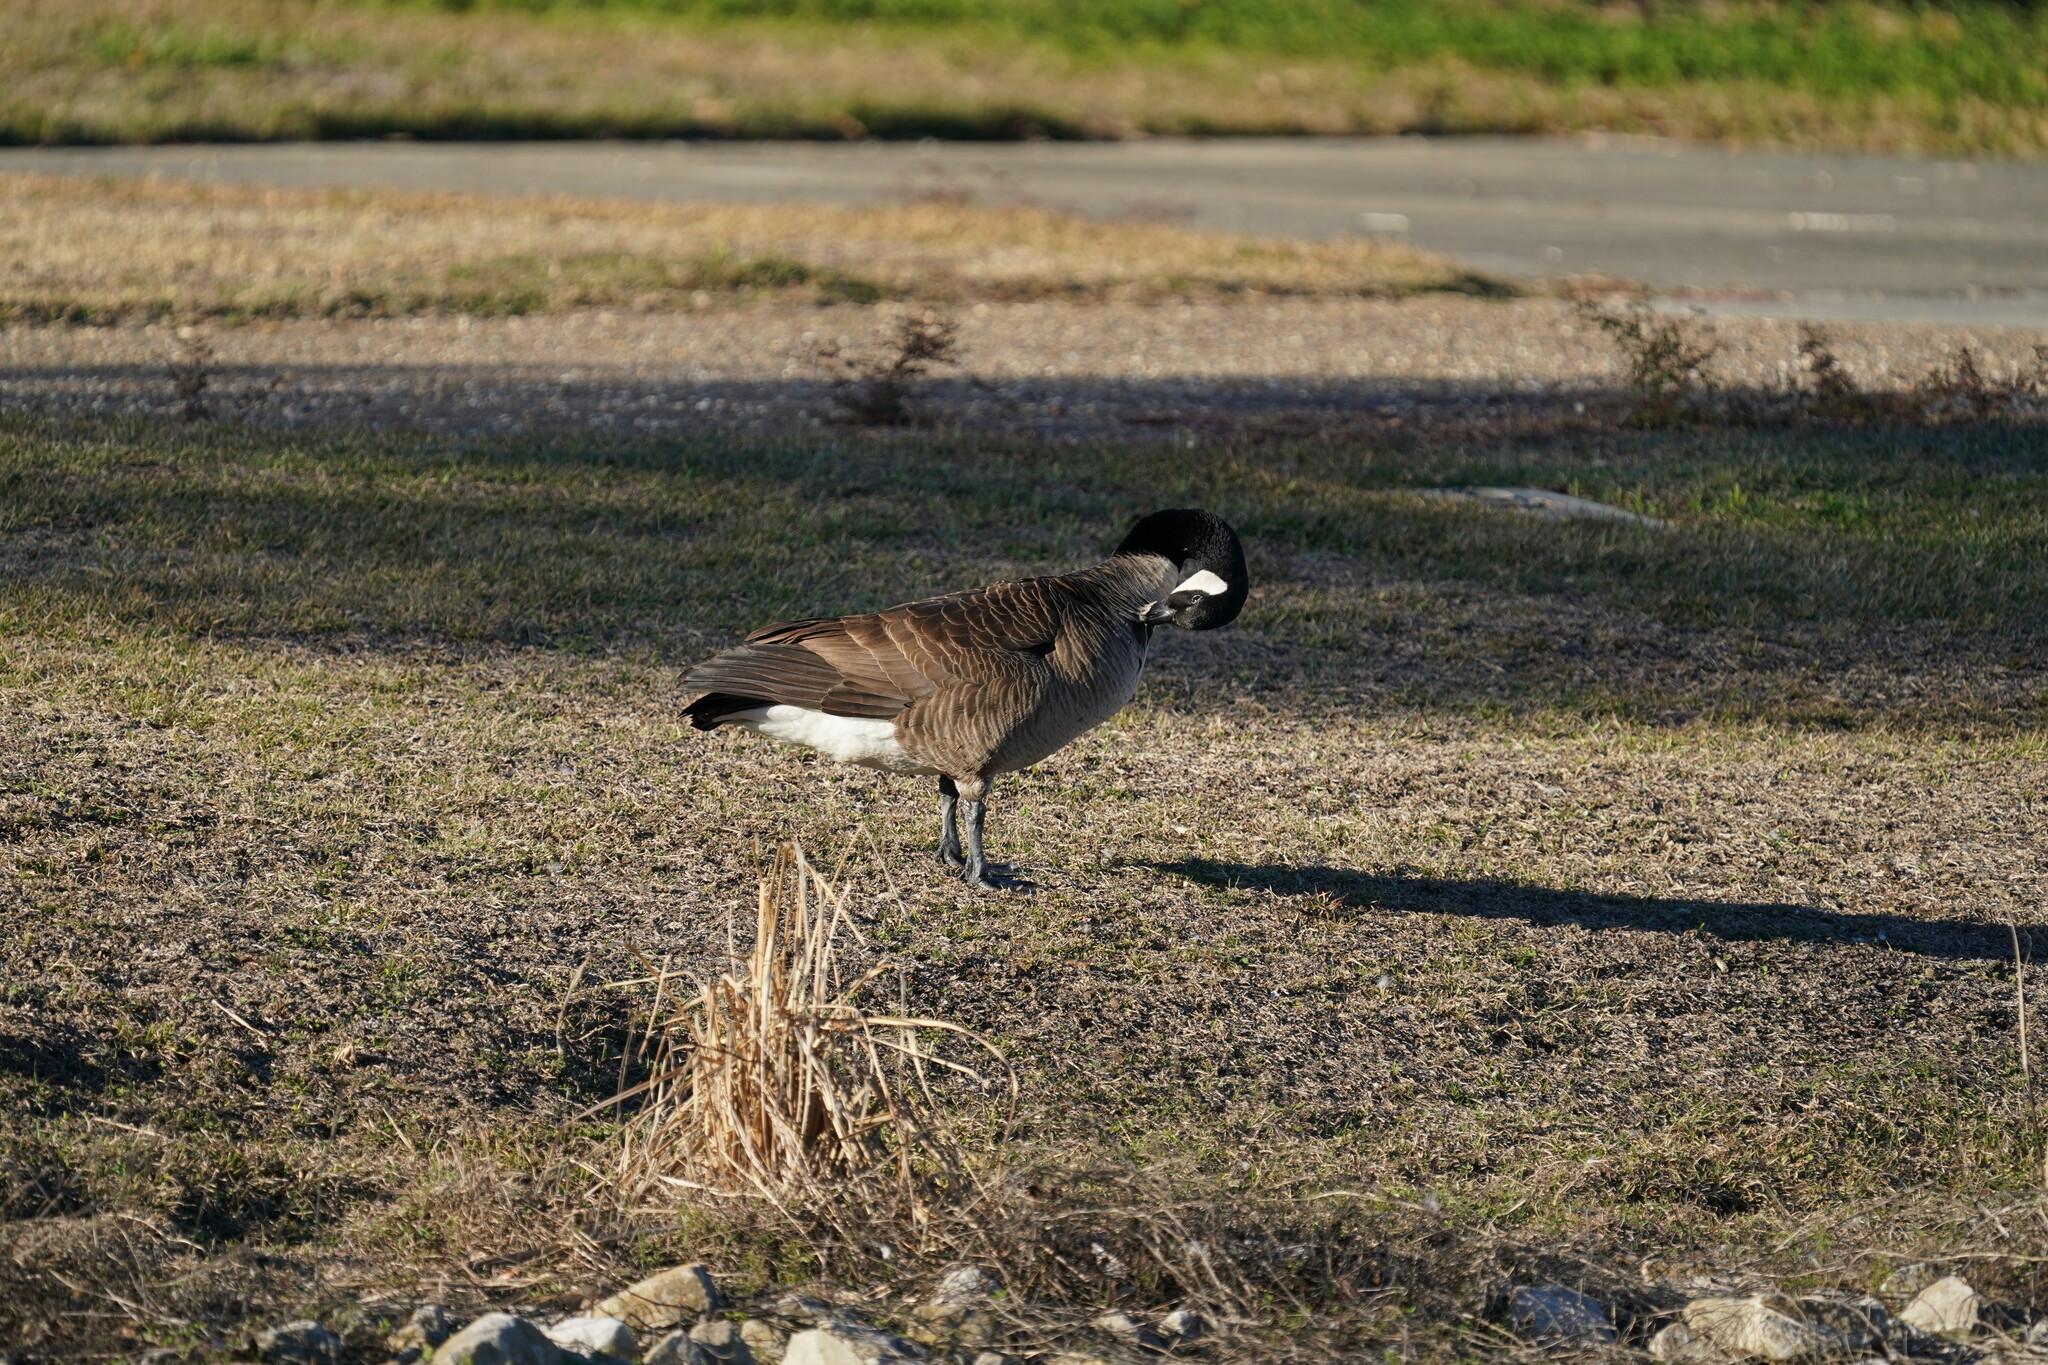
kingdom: Animalia
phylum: Chordata
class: Aves
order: Anseriformes
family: Anatidae
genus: Branta
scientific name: Branta canadensis
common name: Canada goose
